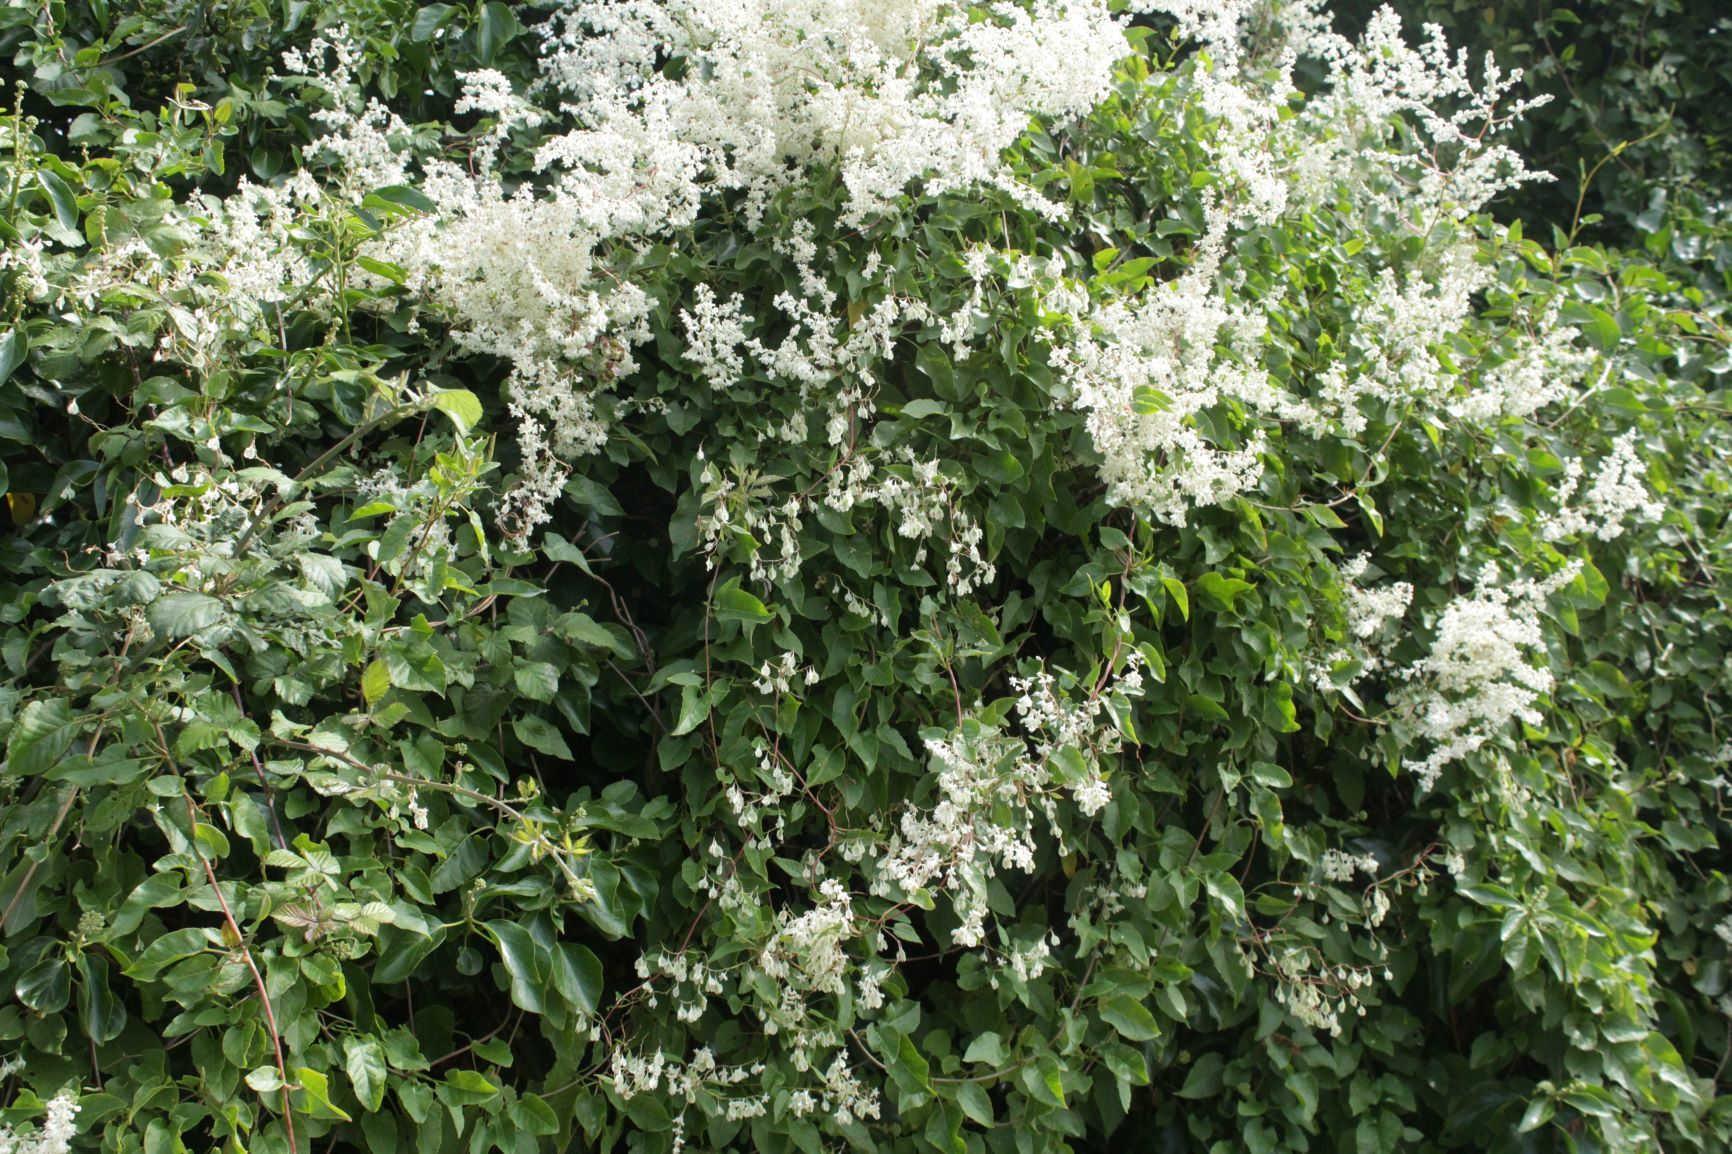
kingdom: Plantae
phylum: Tracheophyta
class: Magnoliopsida
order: Caryophyllales
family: Polygonaceae
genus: Fallopia
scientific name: Fallopia baldschuanica
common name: Russian-vine
